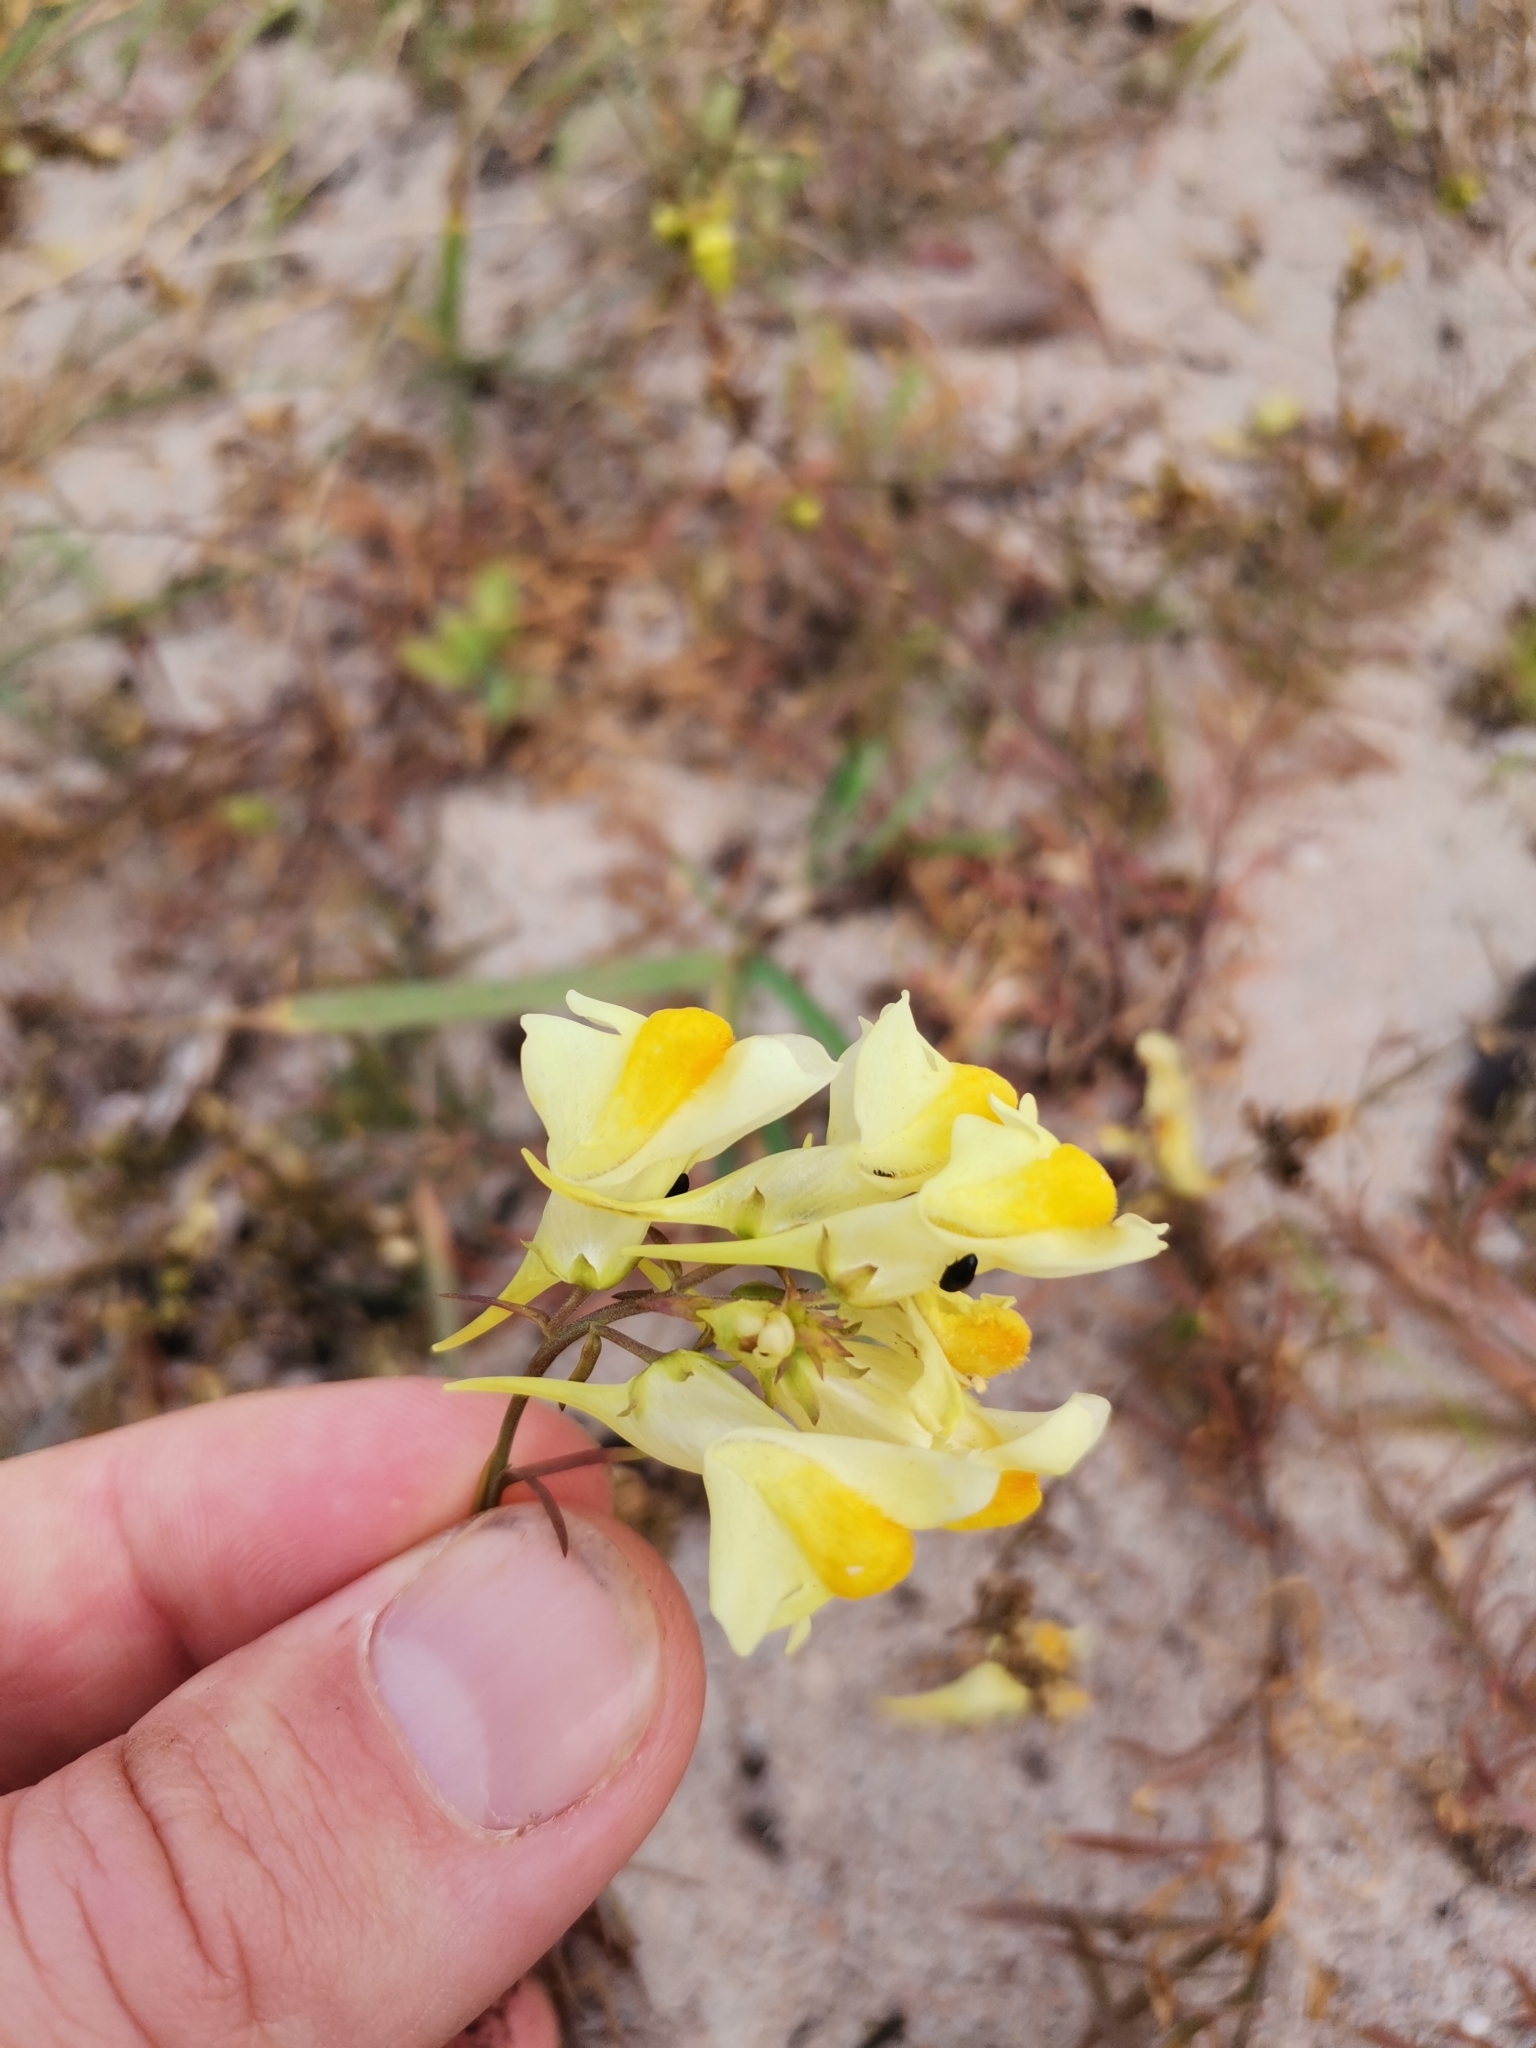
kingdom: Plantae
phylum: Tracheophyta
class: Magnoliopsida
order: Lamiales
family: Plantaginaceae
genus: Linaria
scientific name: Linaria vulgaris
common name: Butter and eggs
